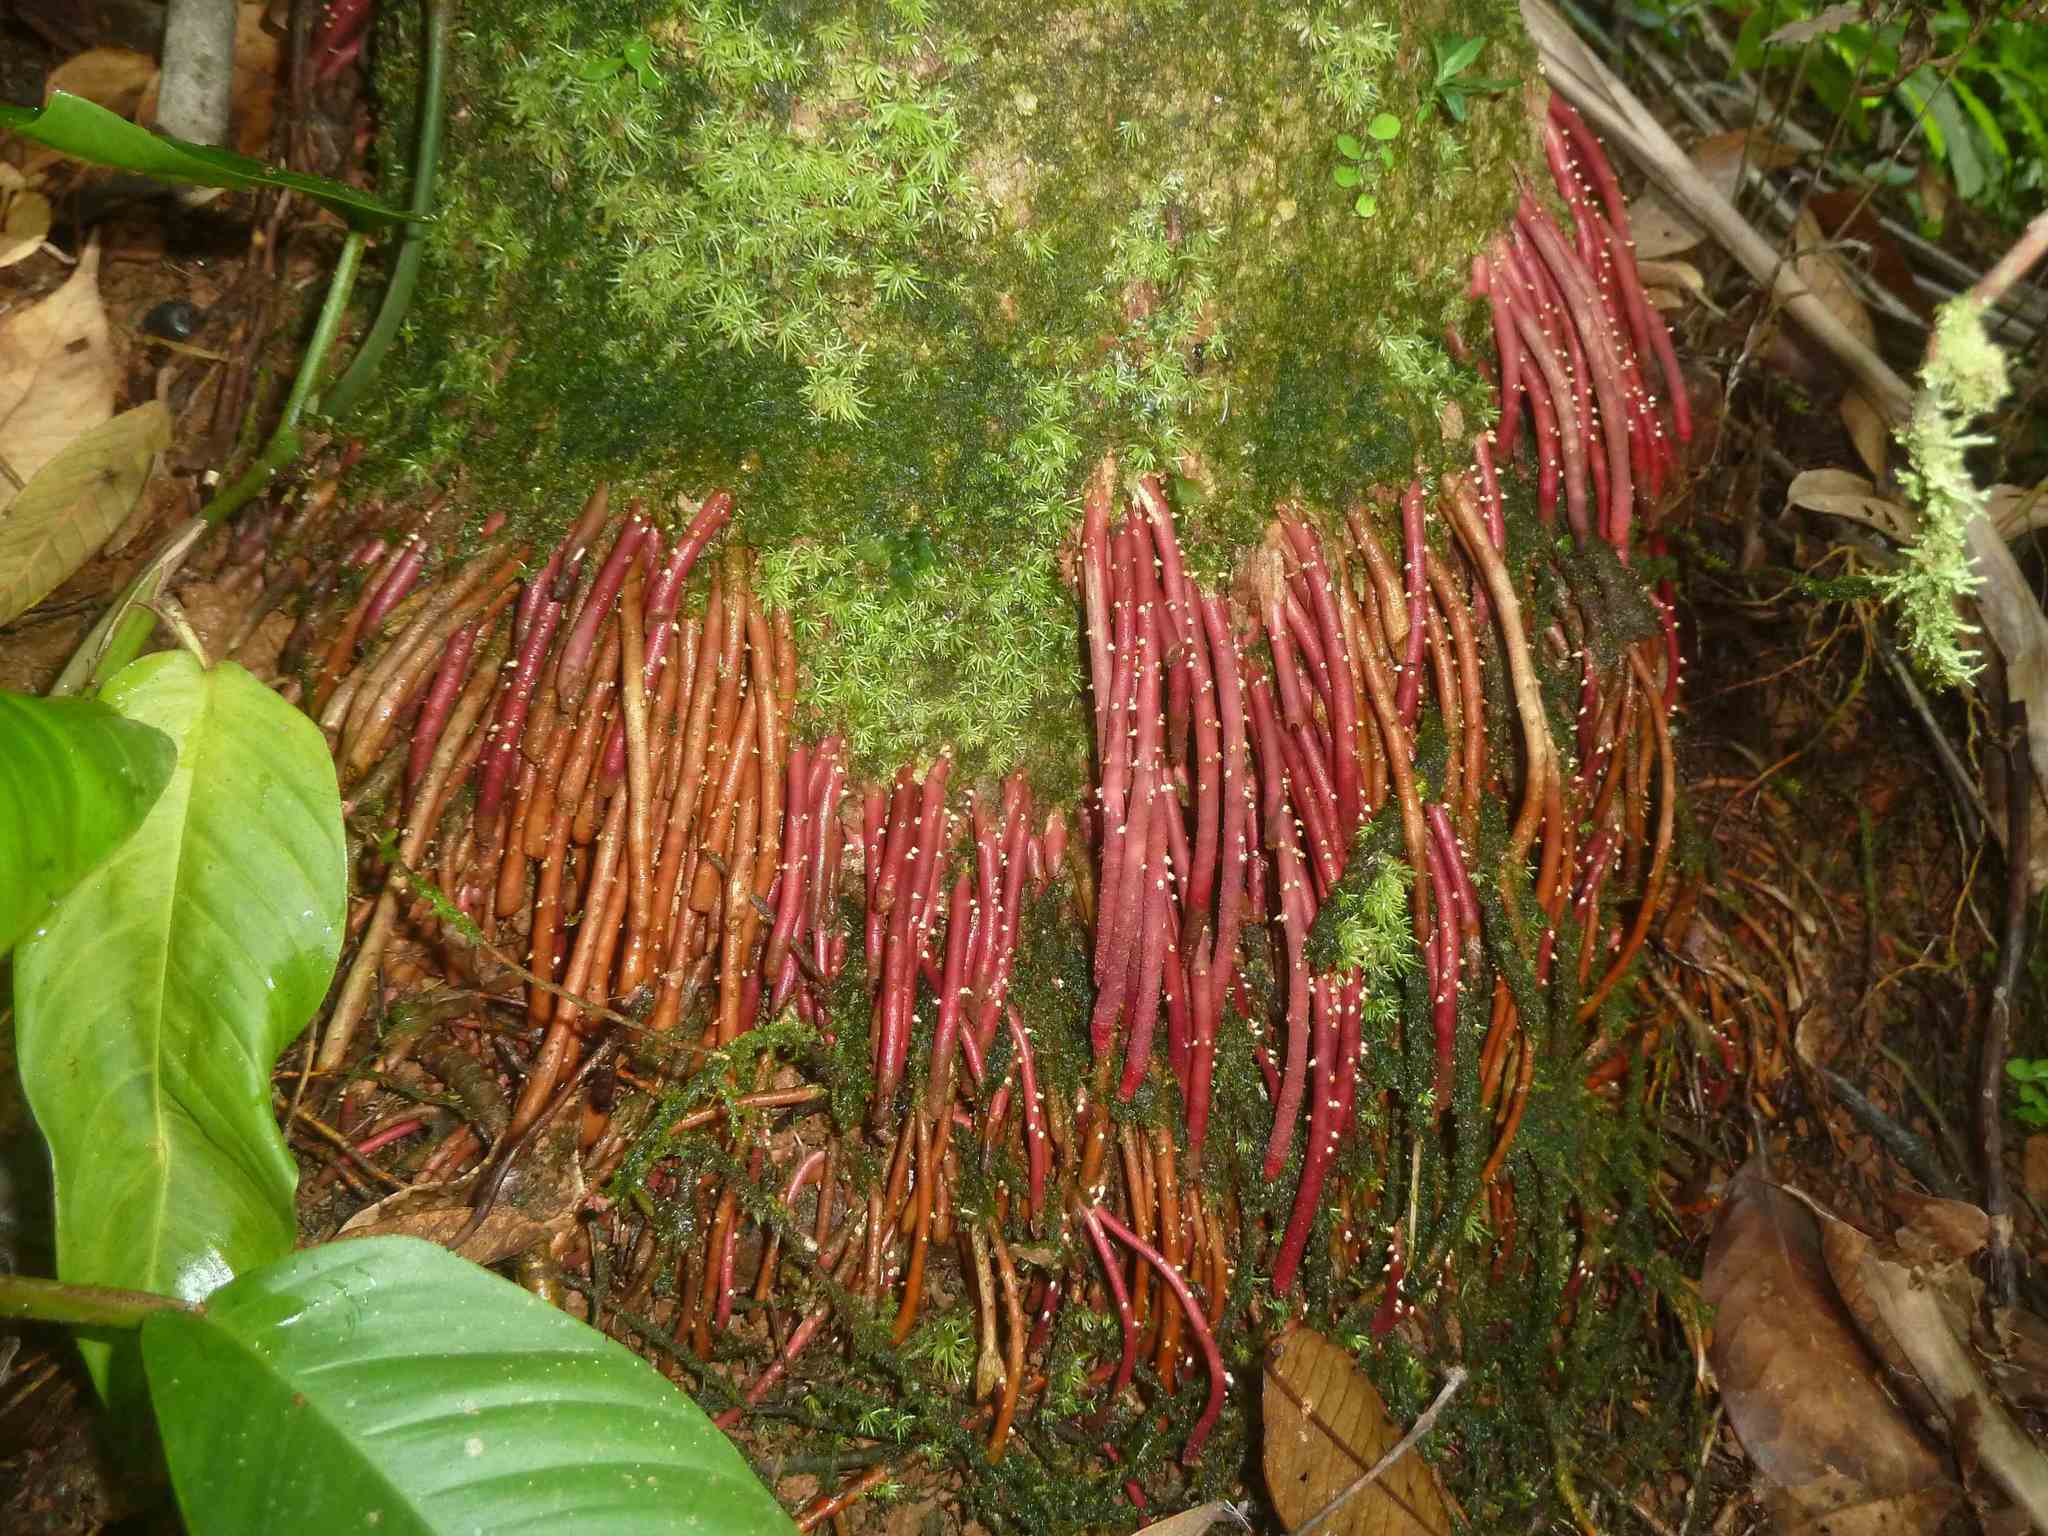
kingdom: Plantae
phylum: Tracheophyta
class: Liliopsida
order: Arecales
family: Arecaceae
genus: Welfia
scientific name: Welfia regia
